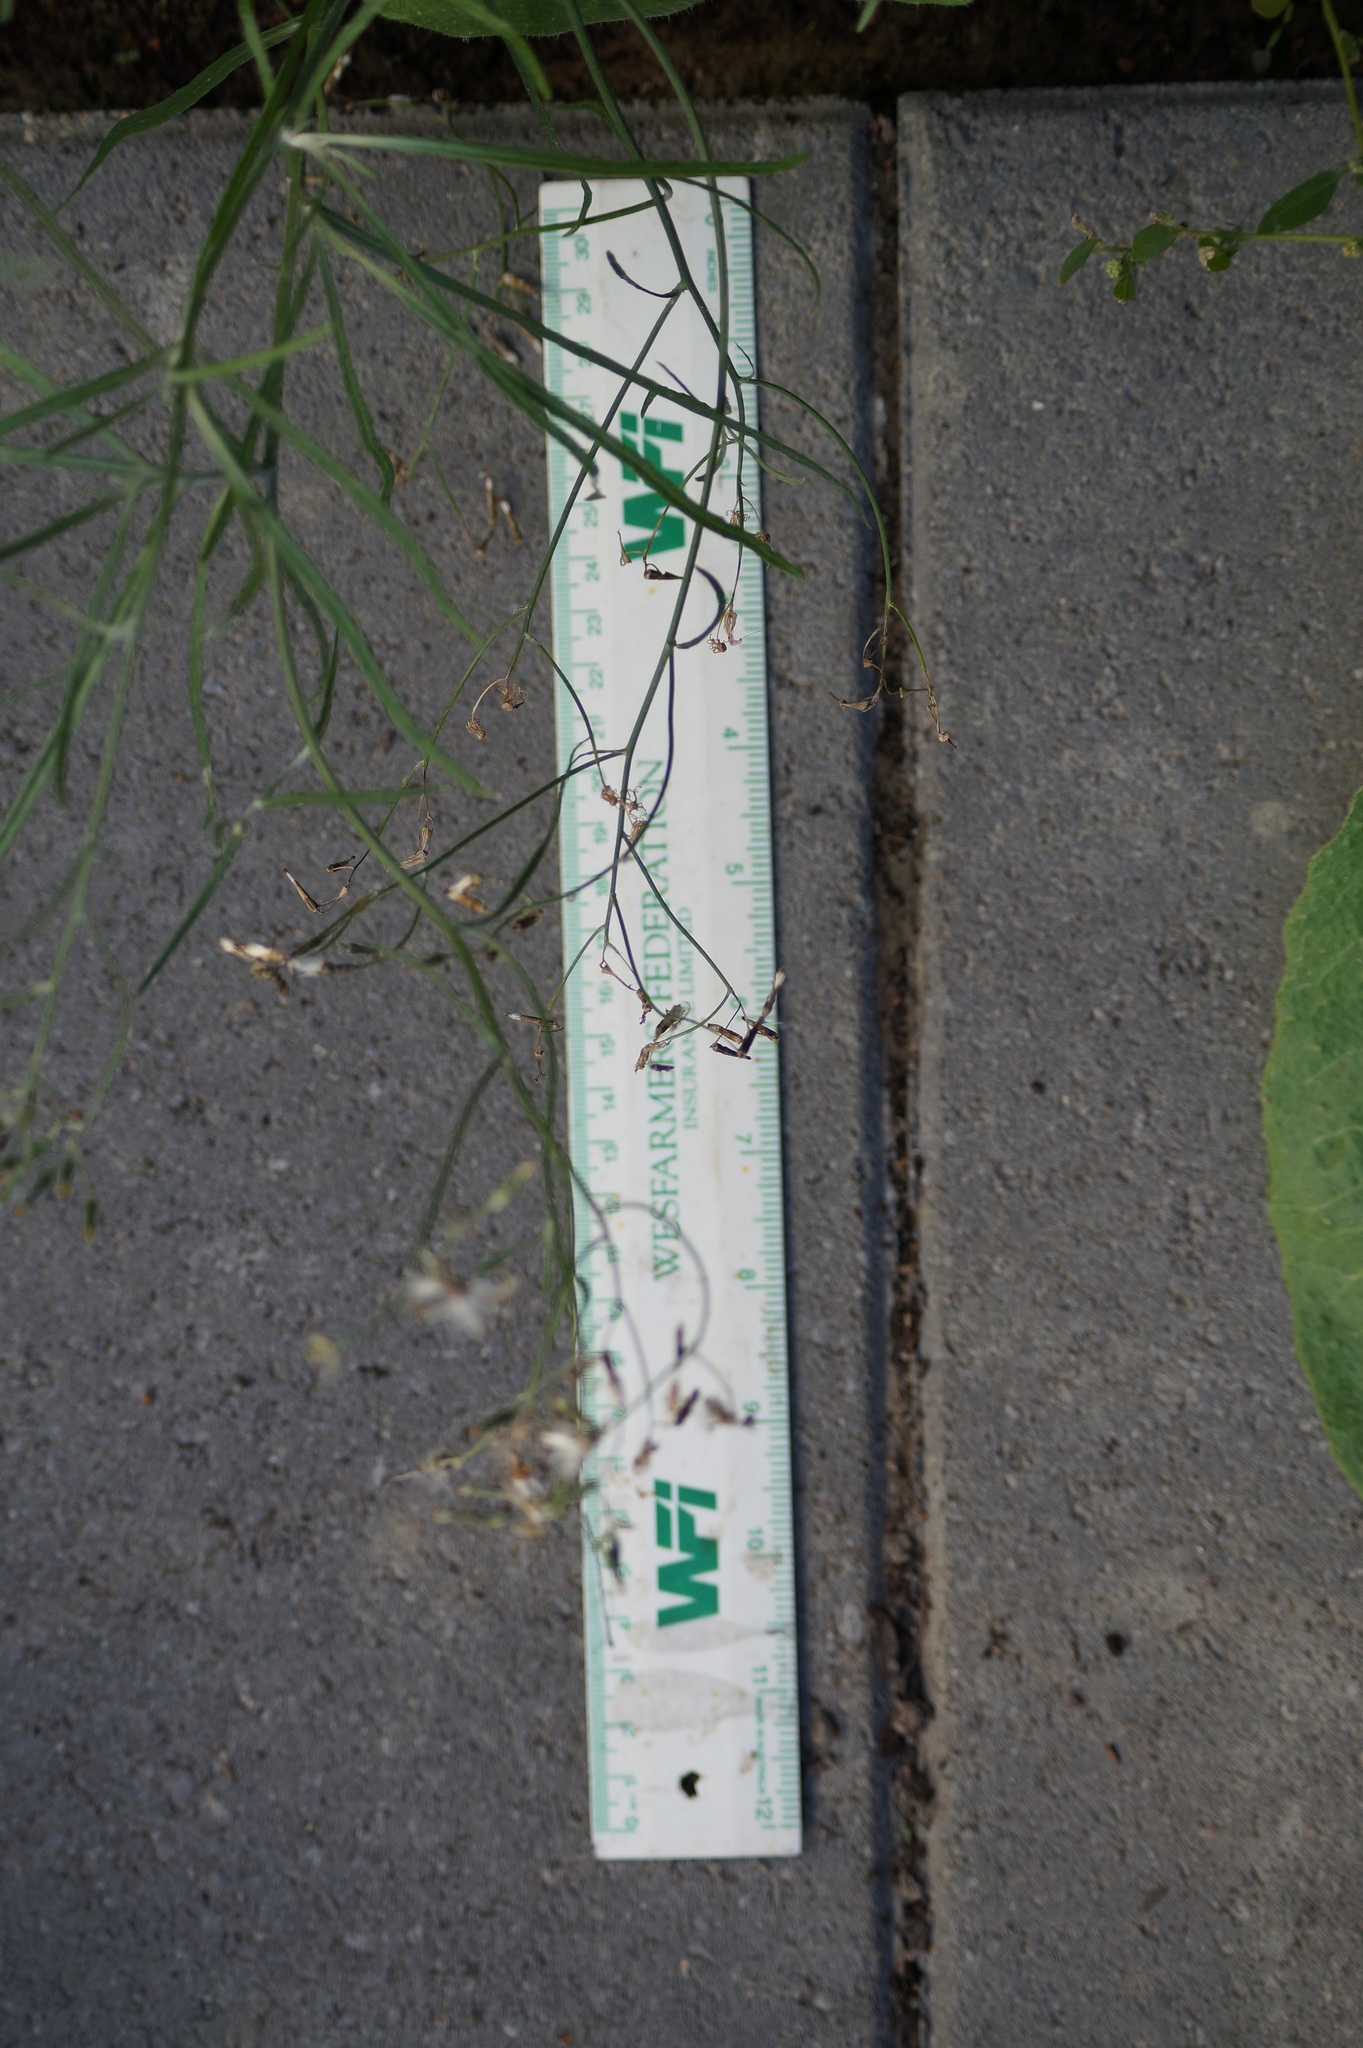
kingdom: Plantae
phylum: Tracheophyta
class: Magnoliopsida
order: Asterales
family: Asteraceae
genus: Senecio
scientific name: Senecio quadridentatus
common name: Cotton fireweed
